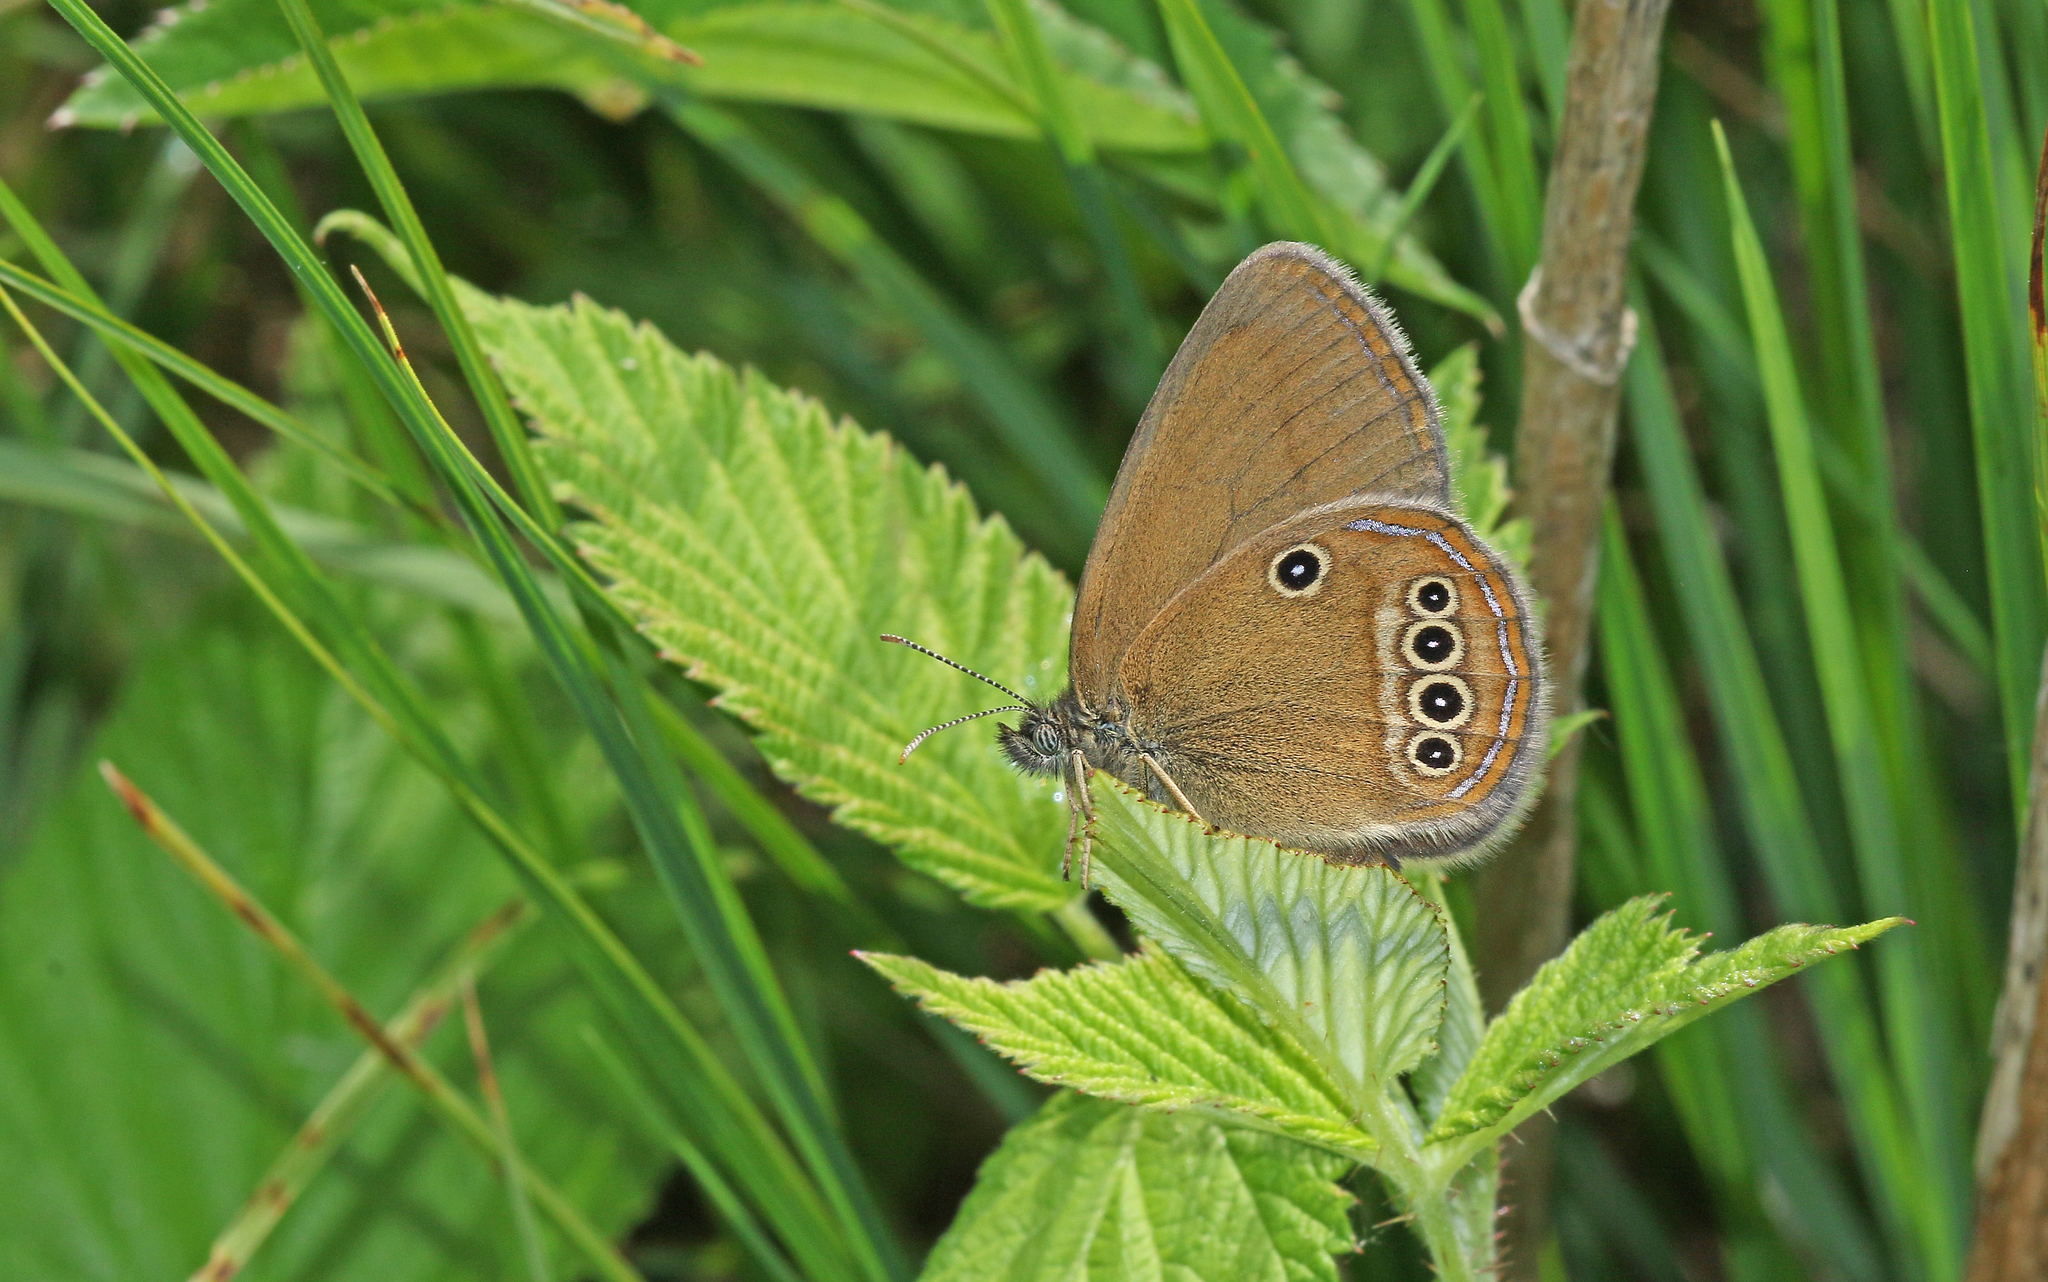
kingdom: Animalia
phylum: Arthropoda
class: Insecta
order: Lepidoptera
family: Nymphalidae
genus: Coenonympha
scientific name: Coenonympha oedippus
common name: False ringlet
